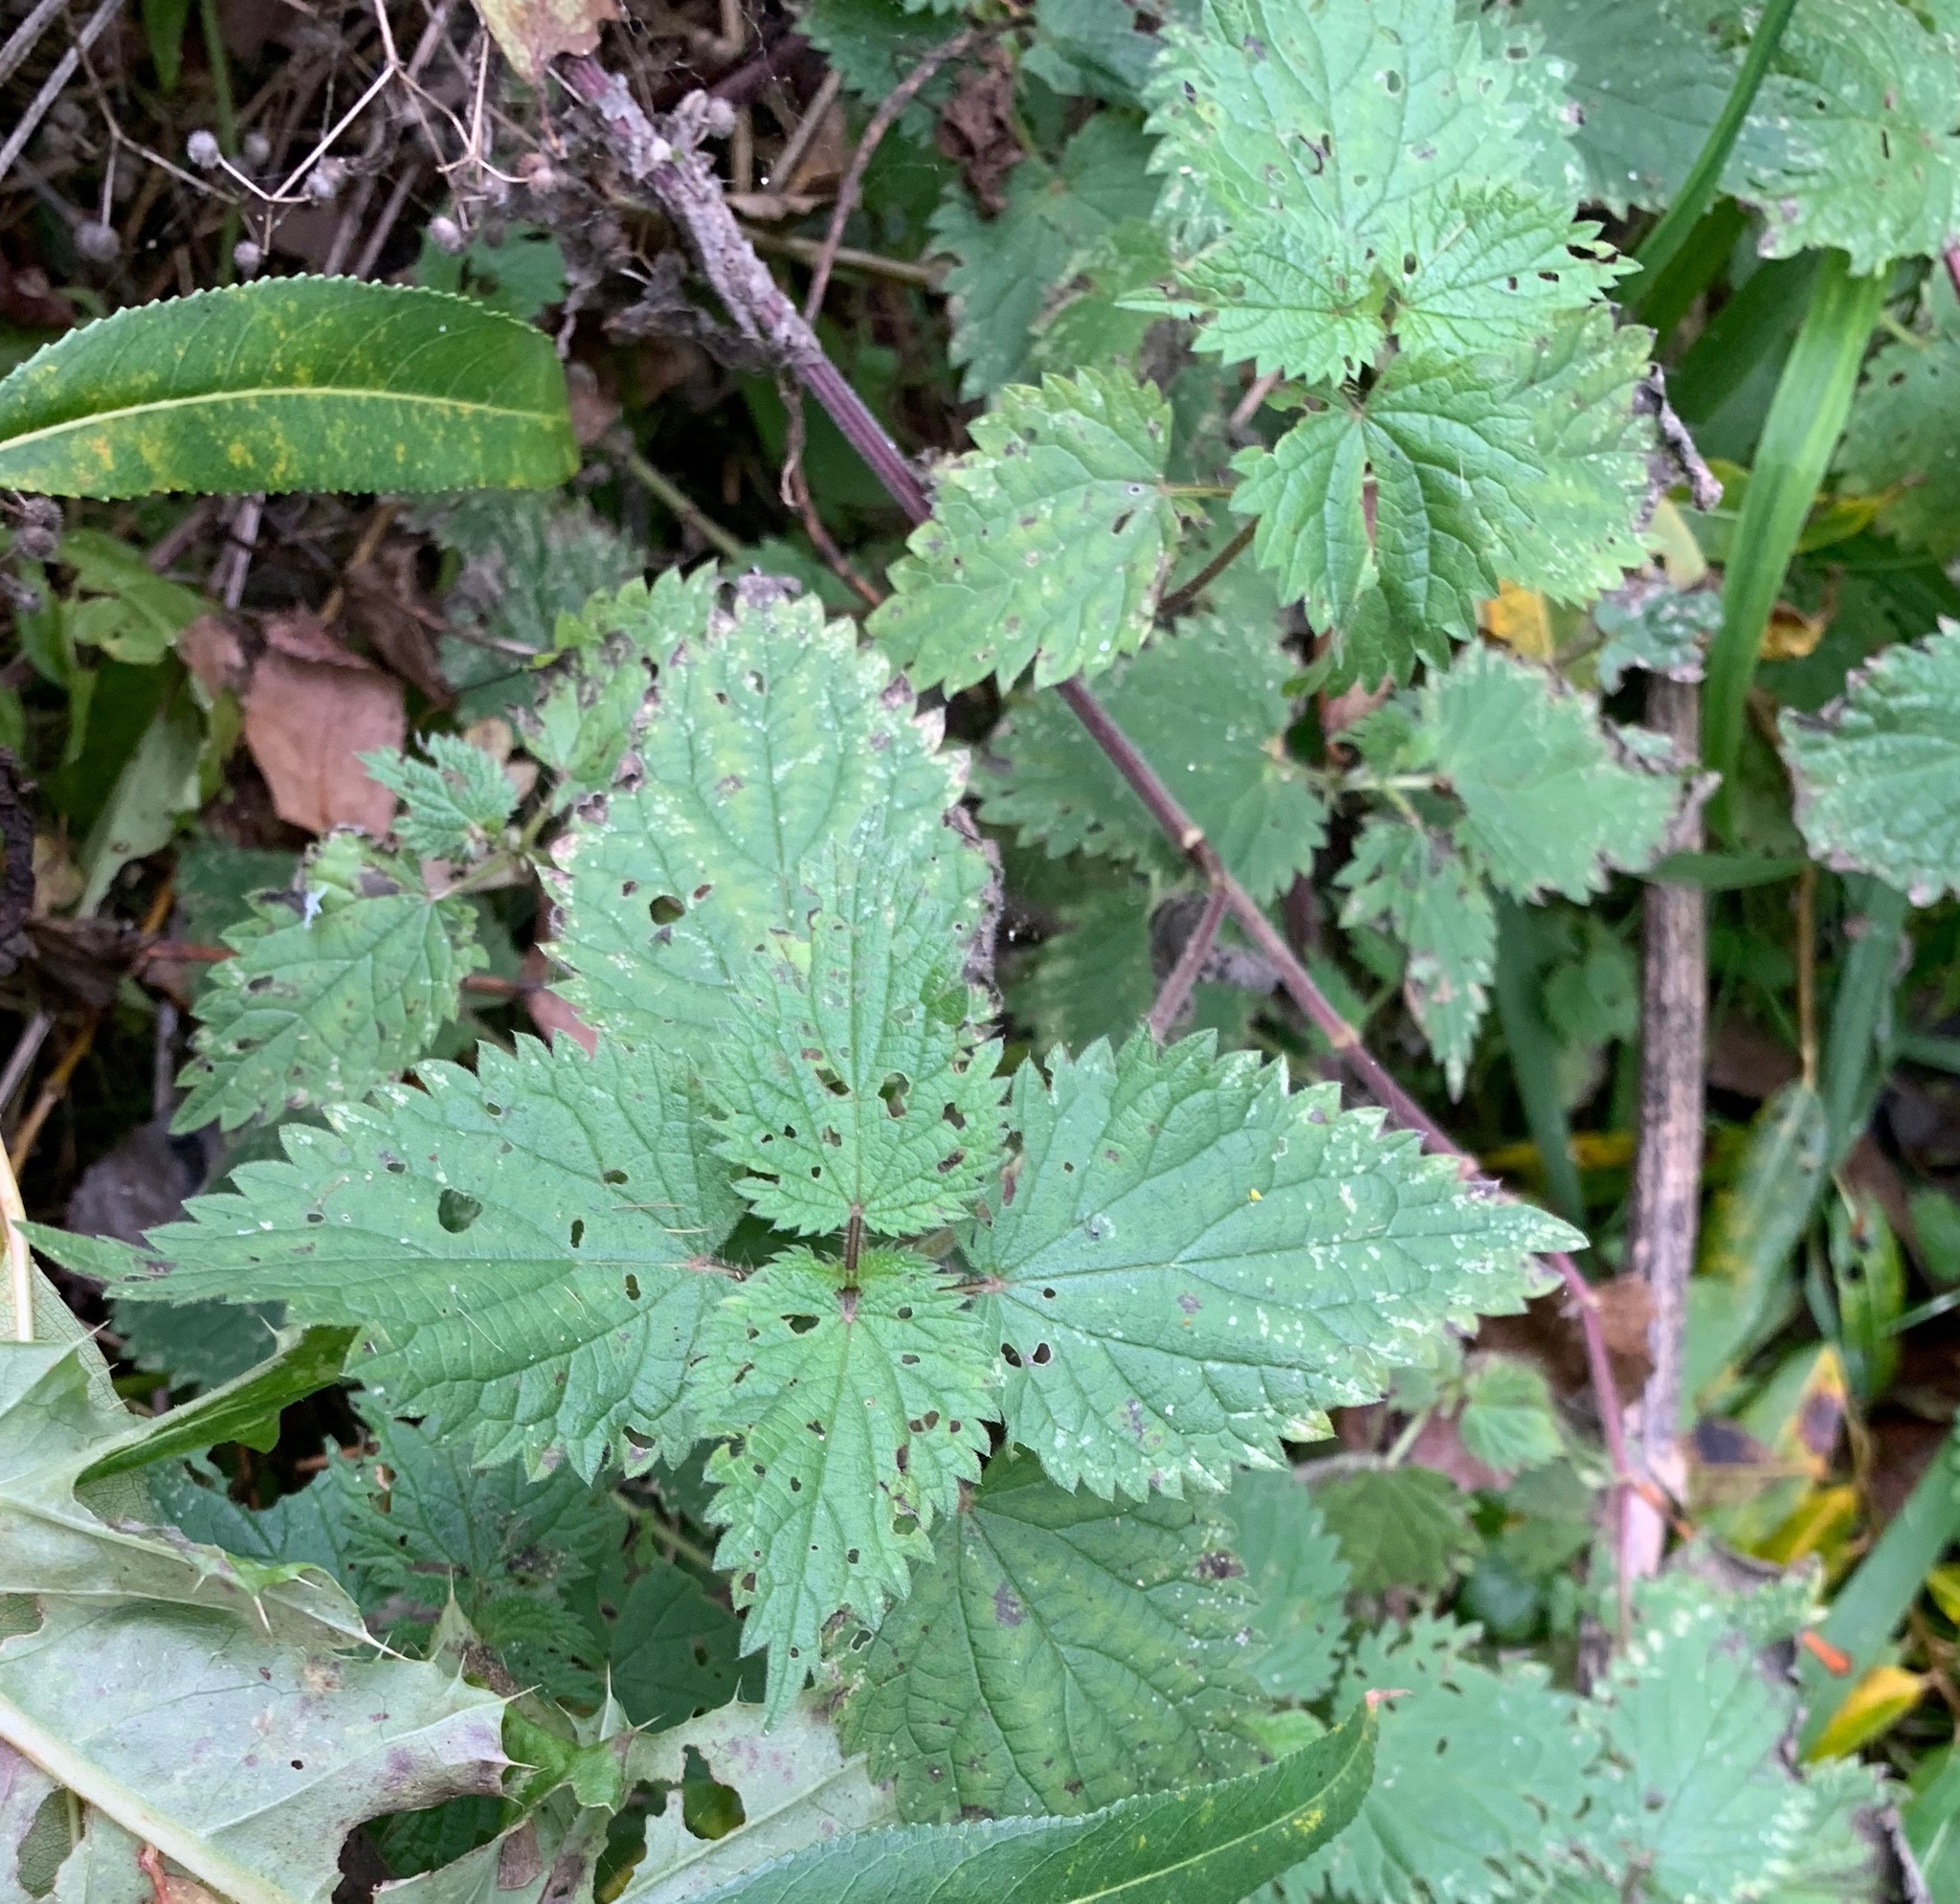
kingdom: Plantae
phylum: Tracheophyta
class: Magnoliopsida
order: Rosales
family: Urticaceae
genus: Urtica
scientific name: Urtica dioica
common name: Common nettle
